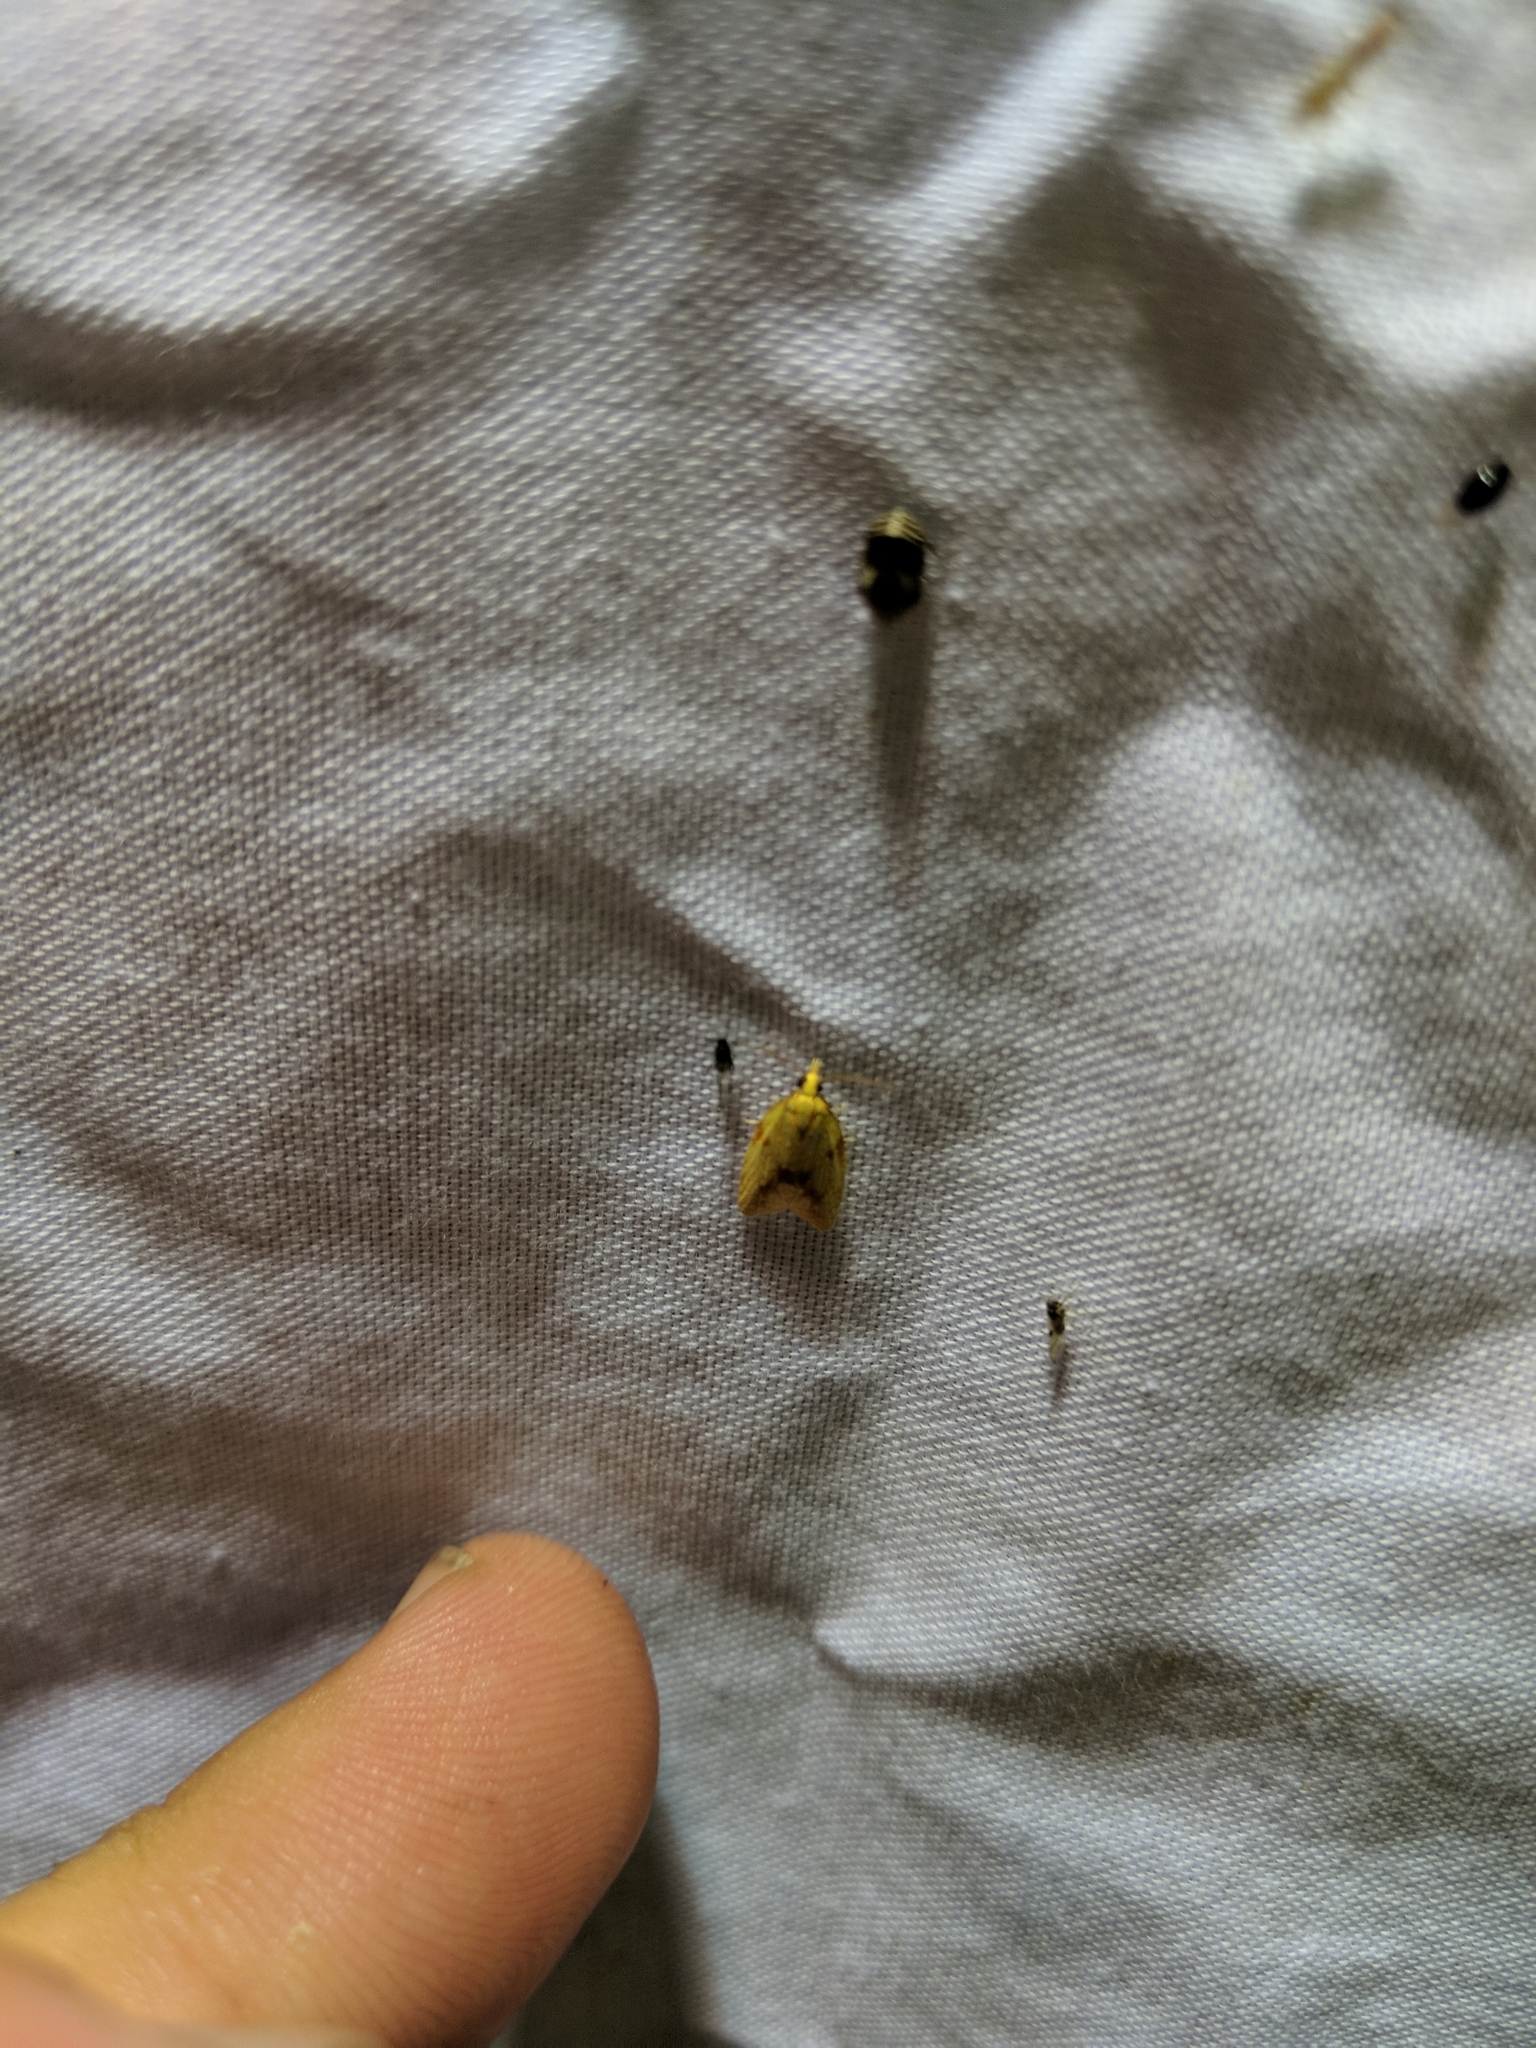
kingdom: Animalia
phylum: Arthropoda
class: Insecta
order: Lepidoptera
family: Tortricidae
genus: Sparganothis
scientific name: Sparganothis sulfureana
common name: Sparganothis fruitworm moth
